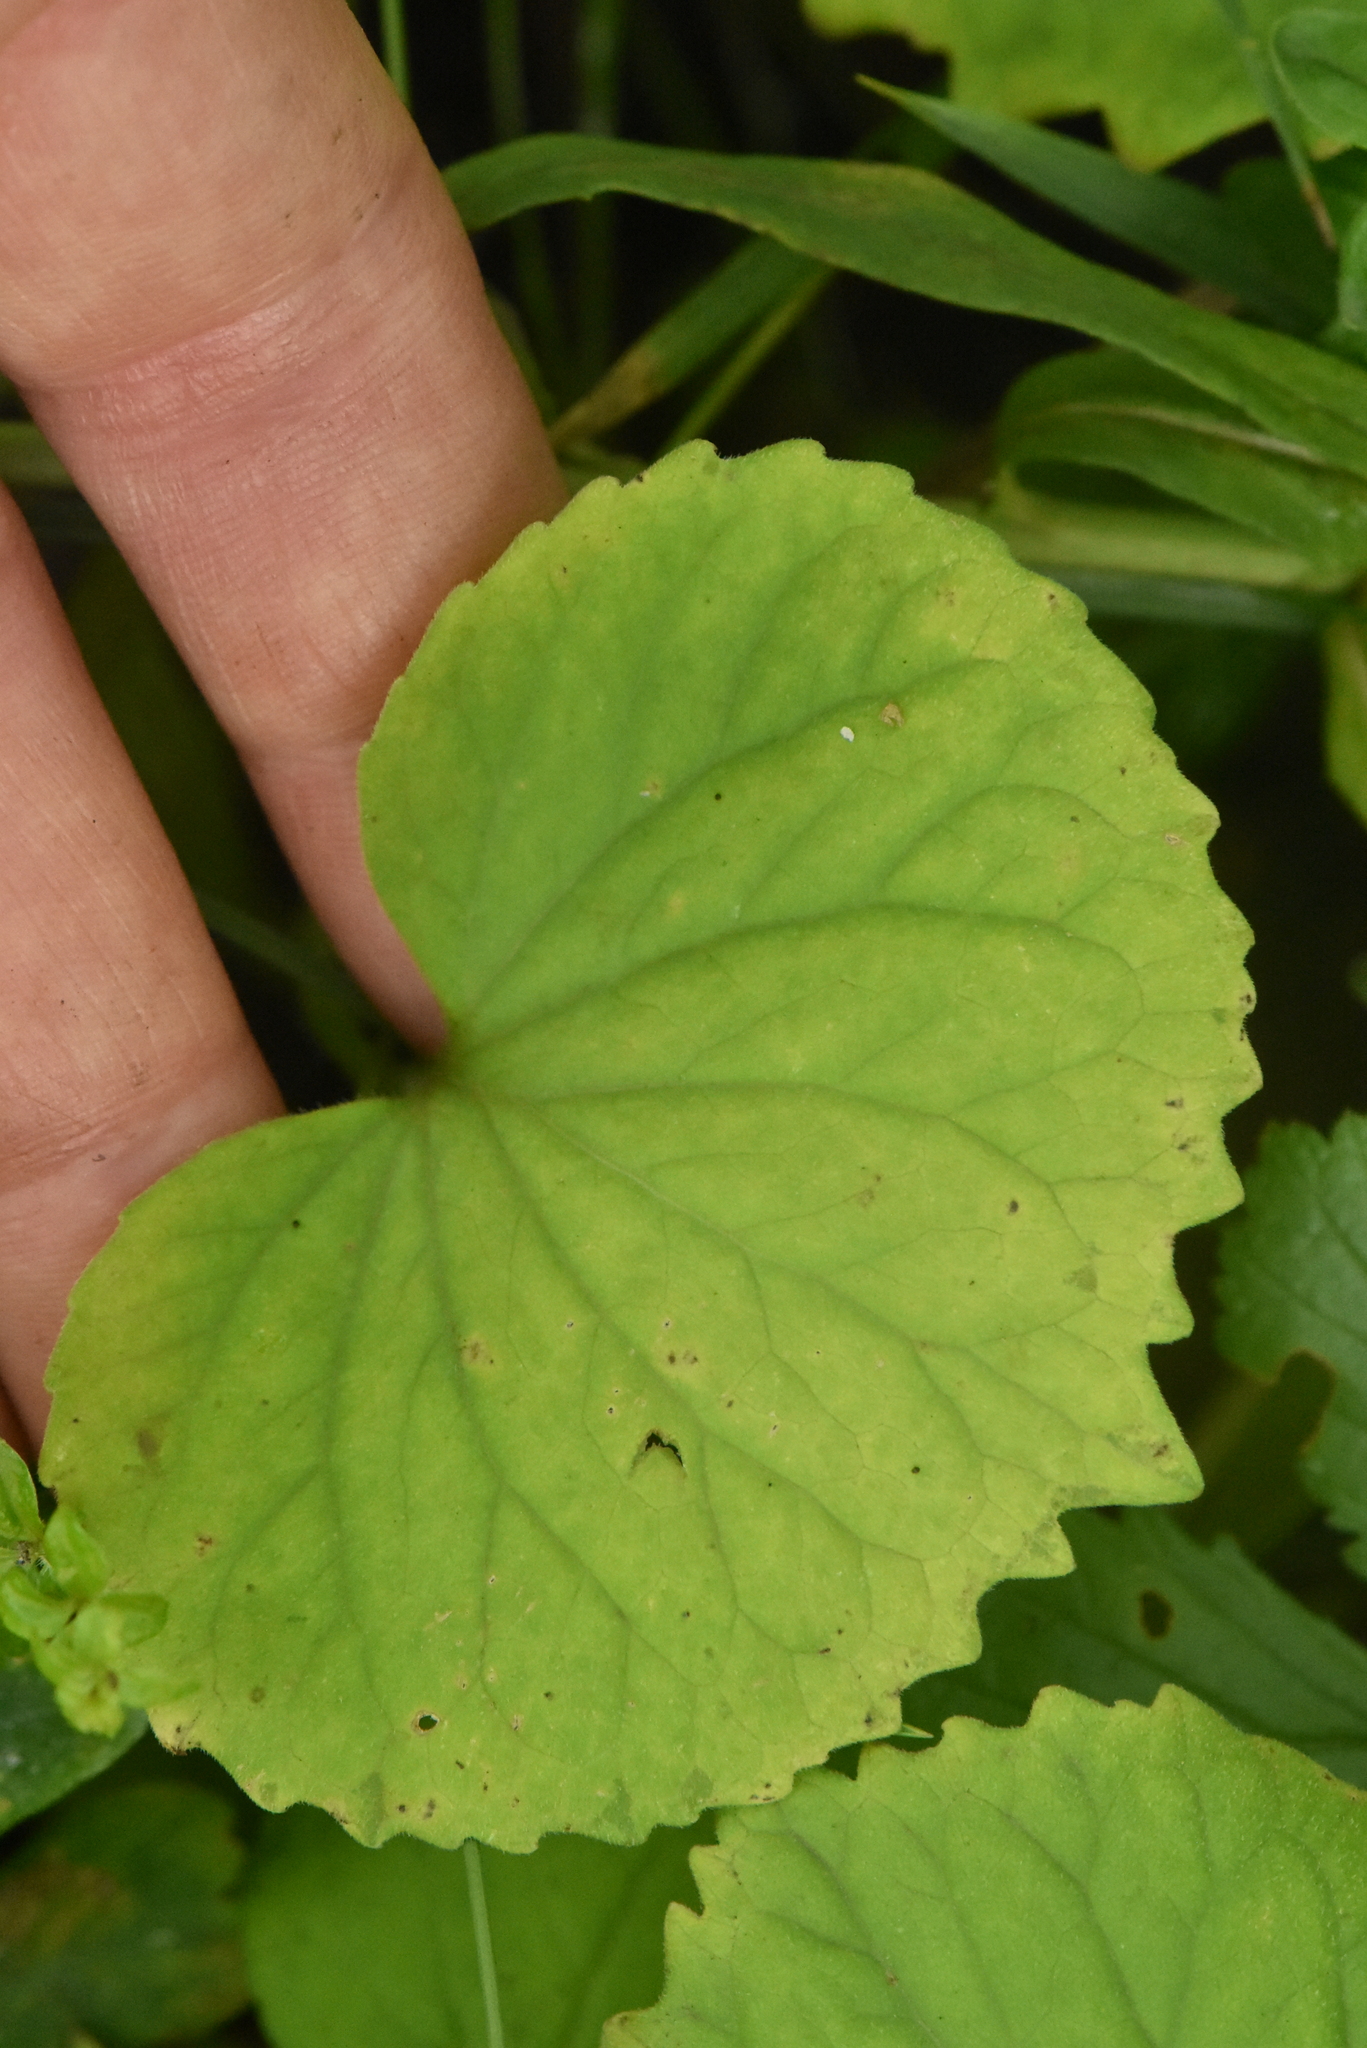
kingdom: Plantae
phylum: Tracheophyta
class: Magnoliopsida
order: Malpighiales
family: Violaceae
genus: Viola
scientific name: Viola uniflora
